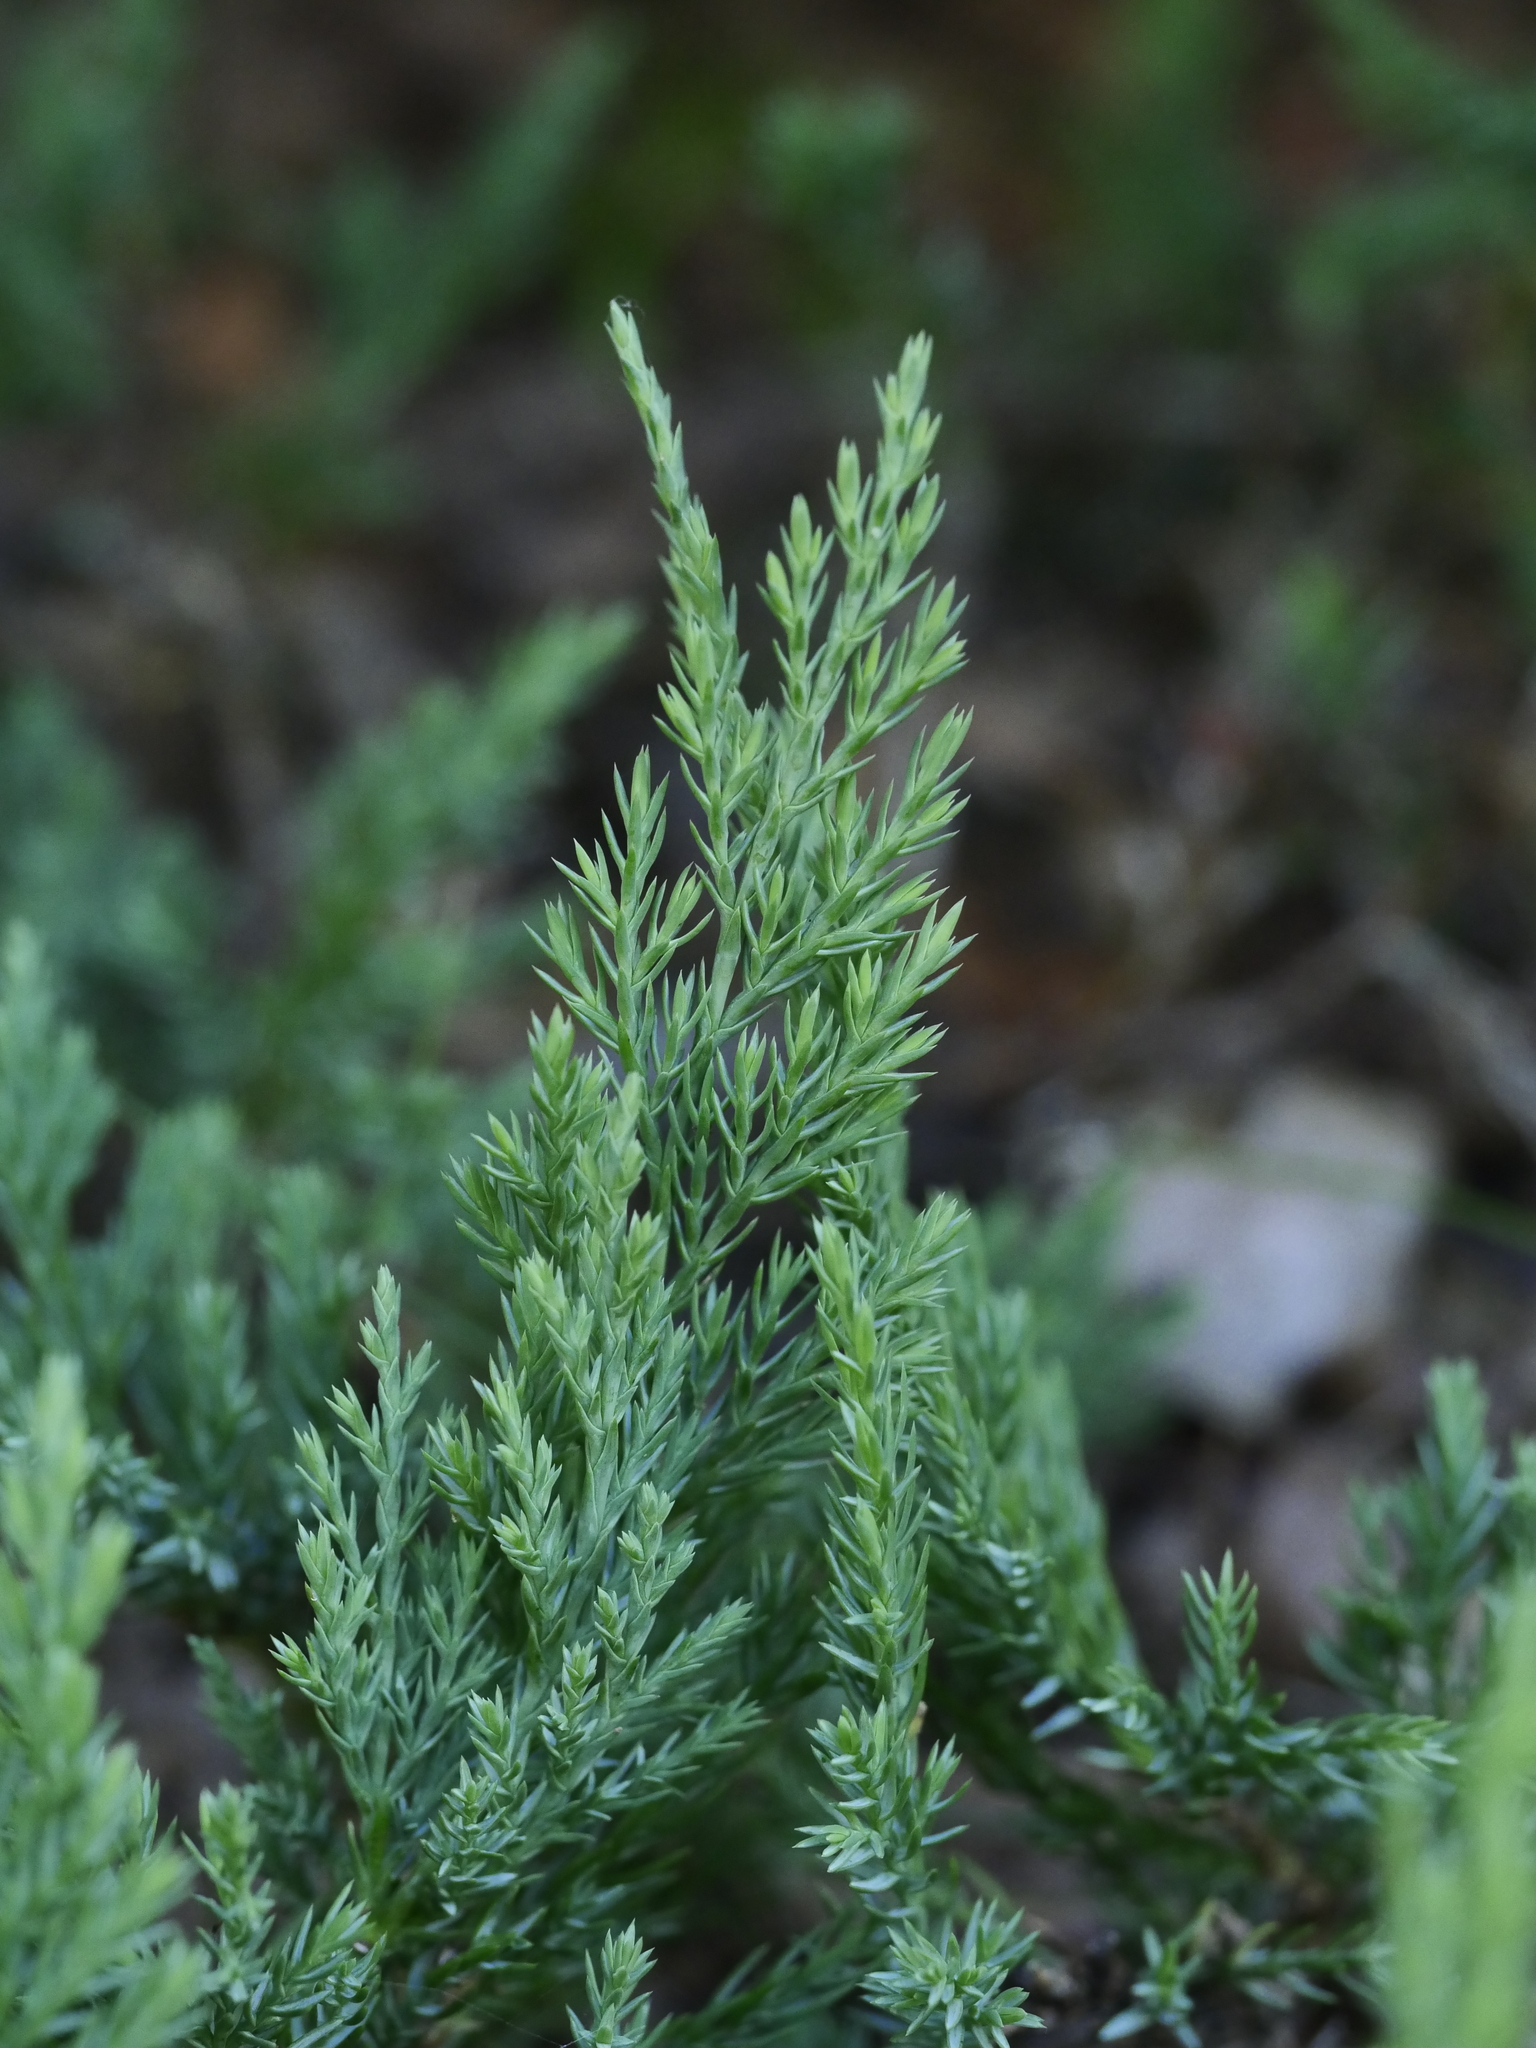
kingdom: Plantae
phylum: Tracheophyta
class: Pinopsida
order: Pinales
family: Cupressaceae
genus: Juniperus
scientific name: Juniperus horizontalis
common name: Creeping juniper
